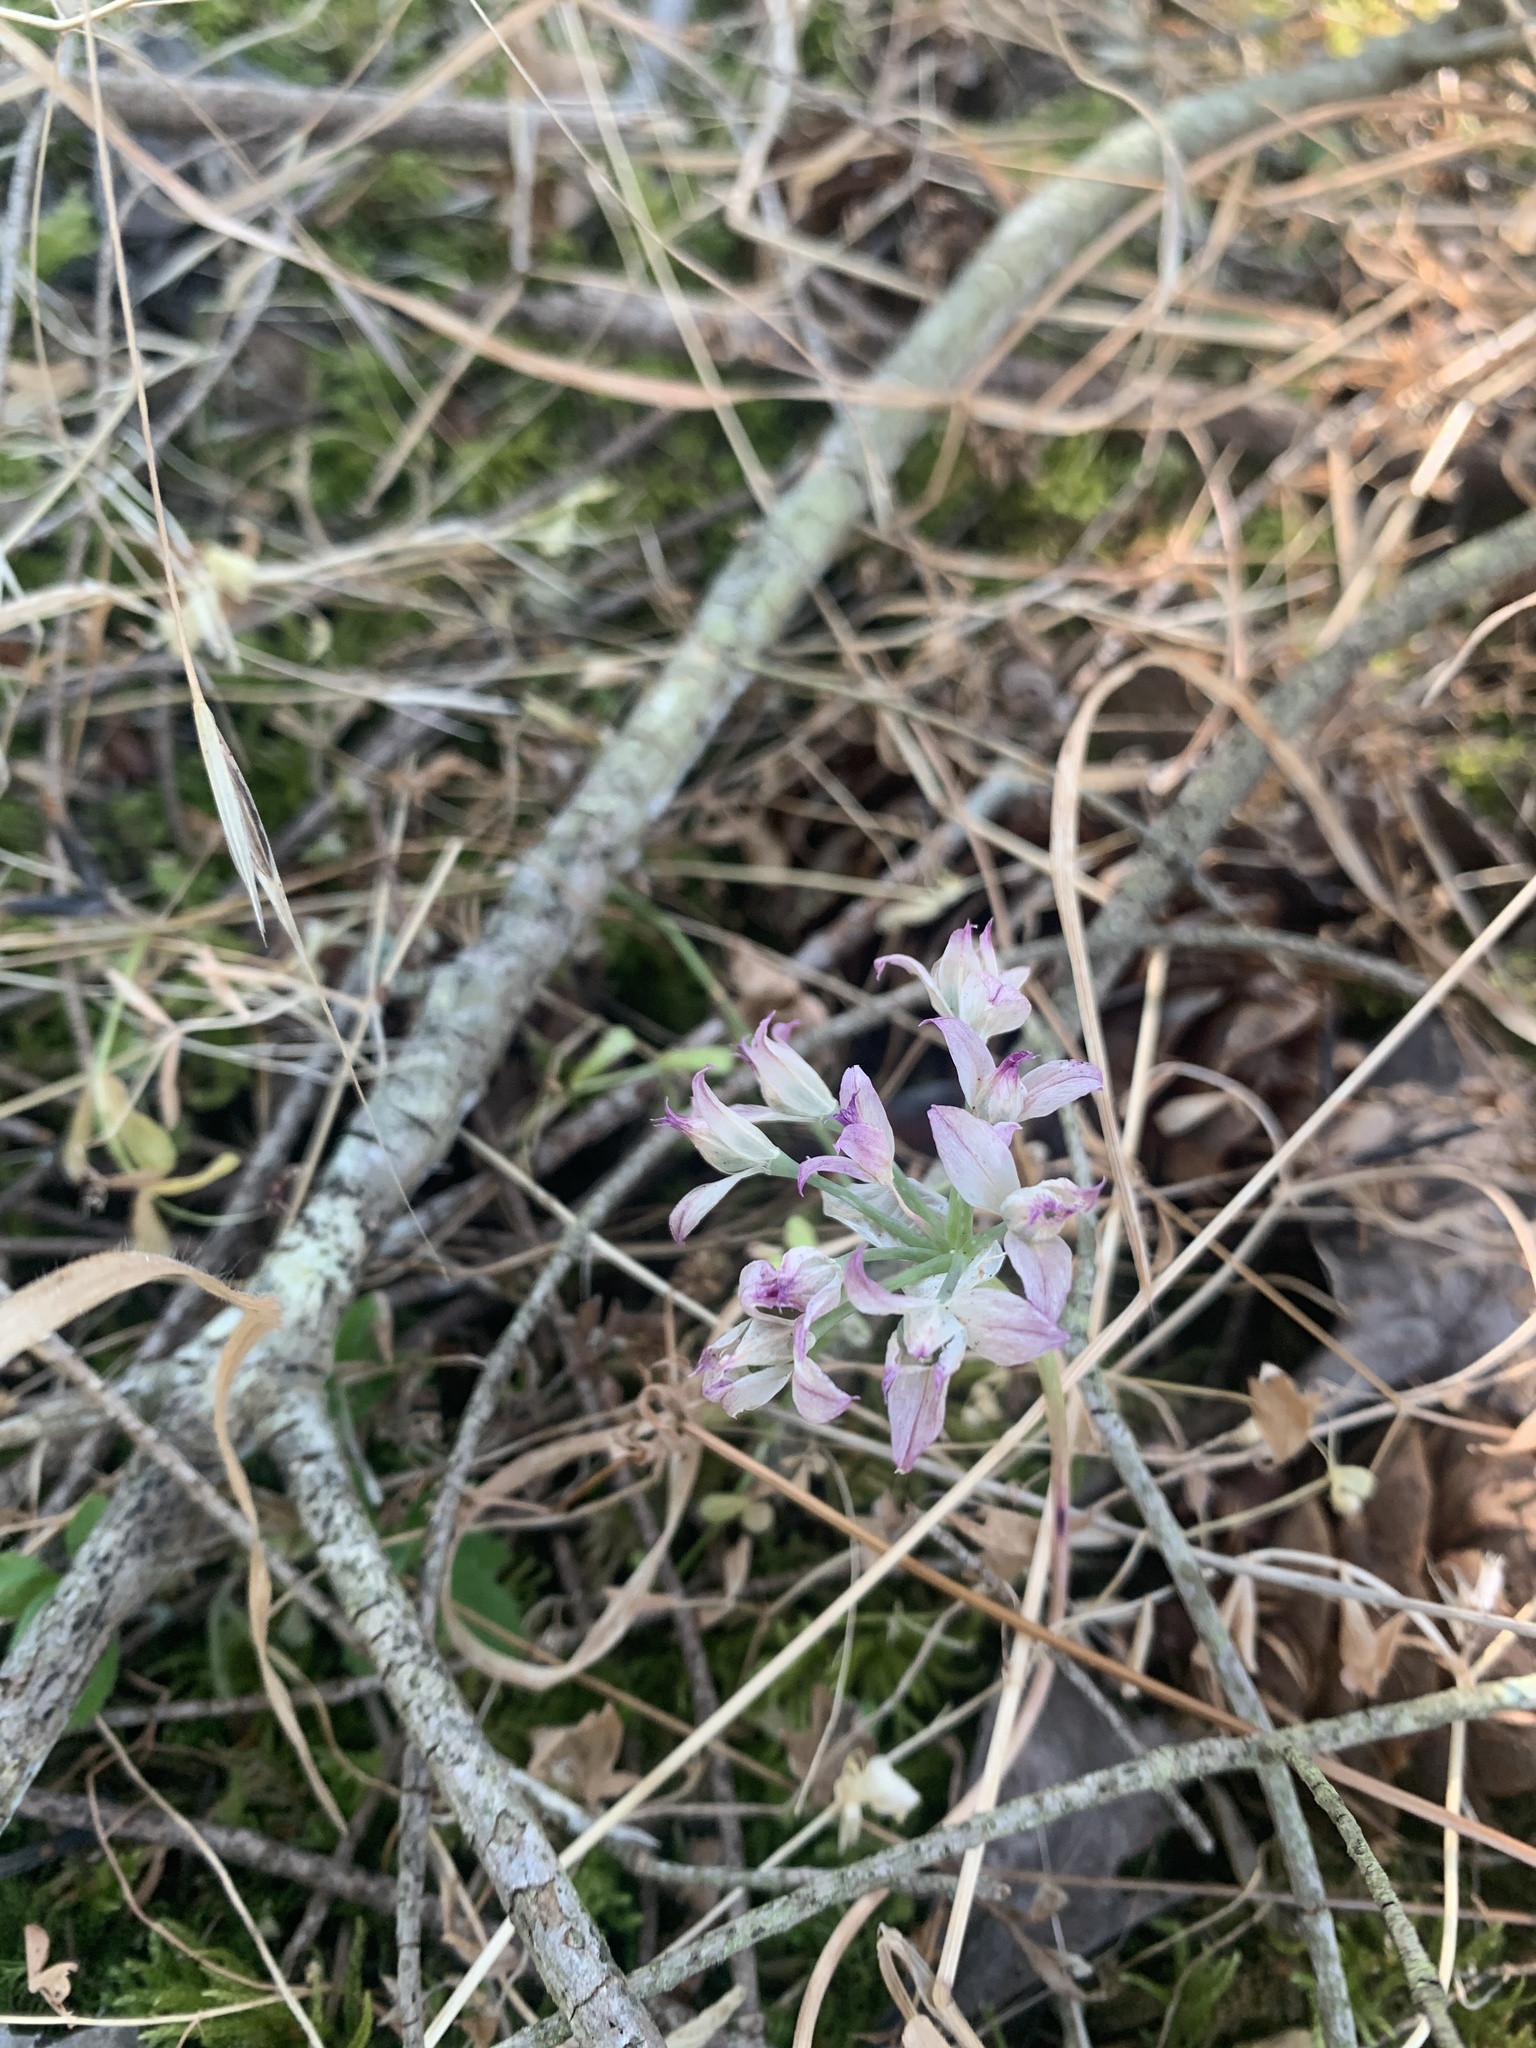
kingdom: Plantae
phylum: Tracheophyta
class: Liliopsida
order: Asparagales
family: Amaryllidaceae
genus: Allium
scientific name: Allium acuminatum
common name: Hooker's onion
